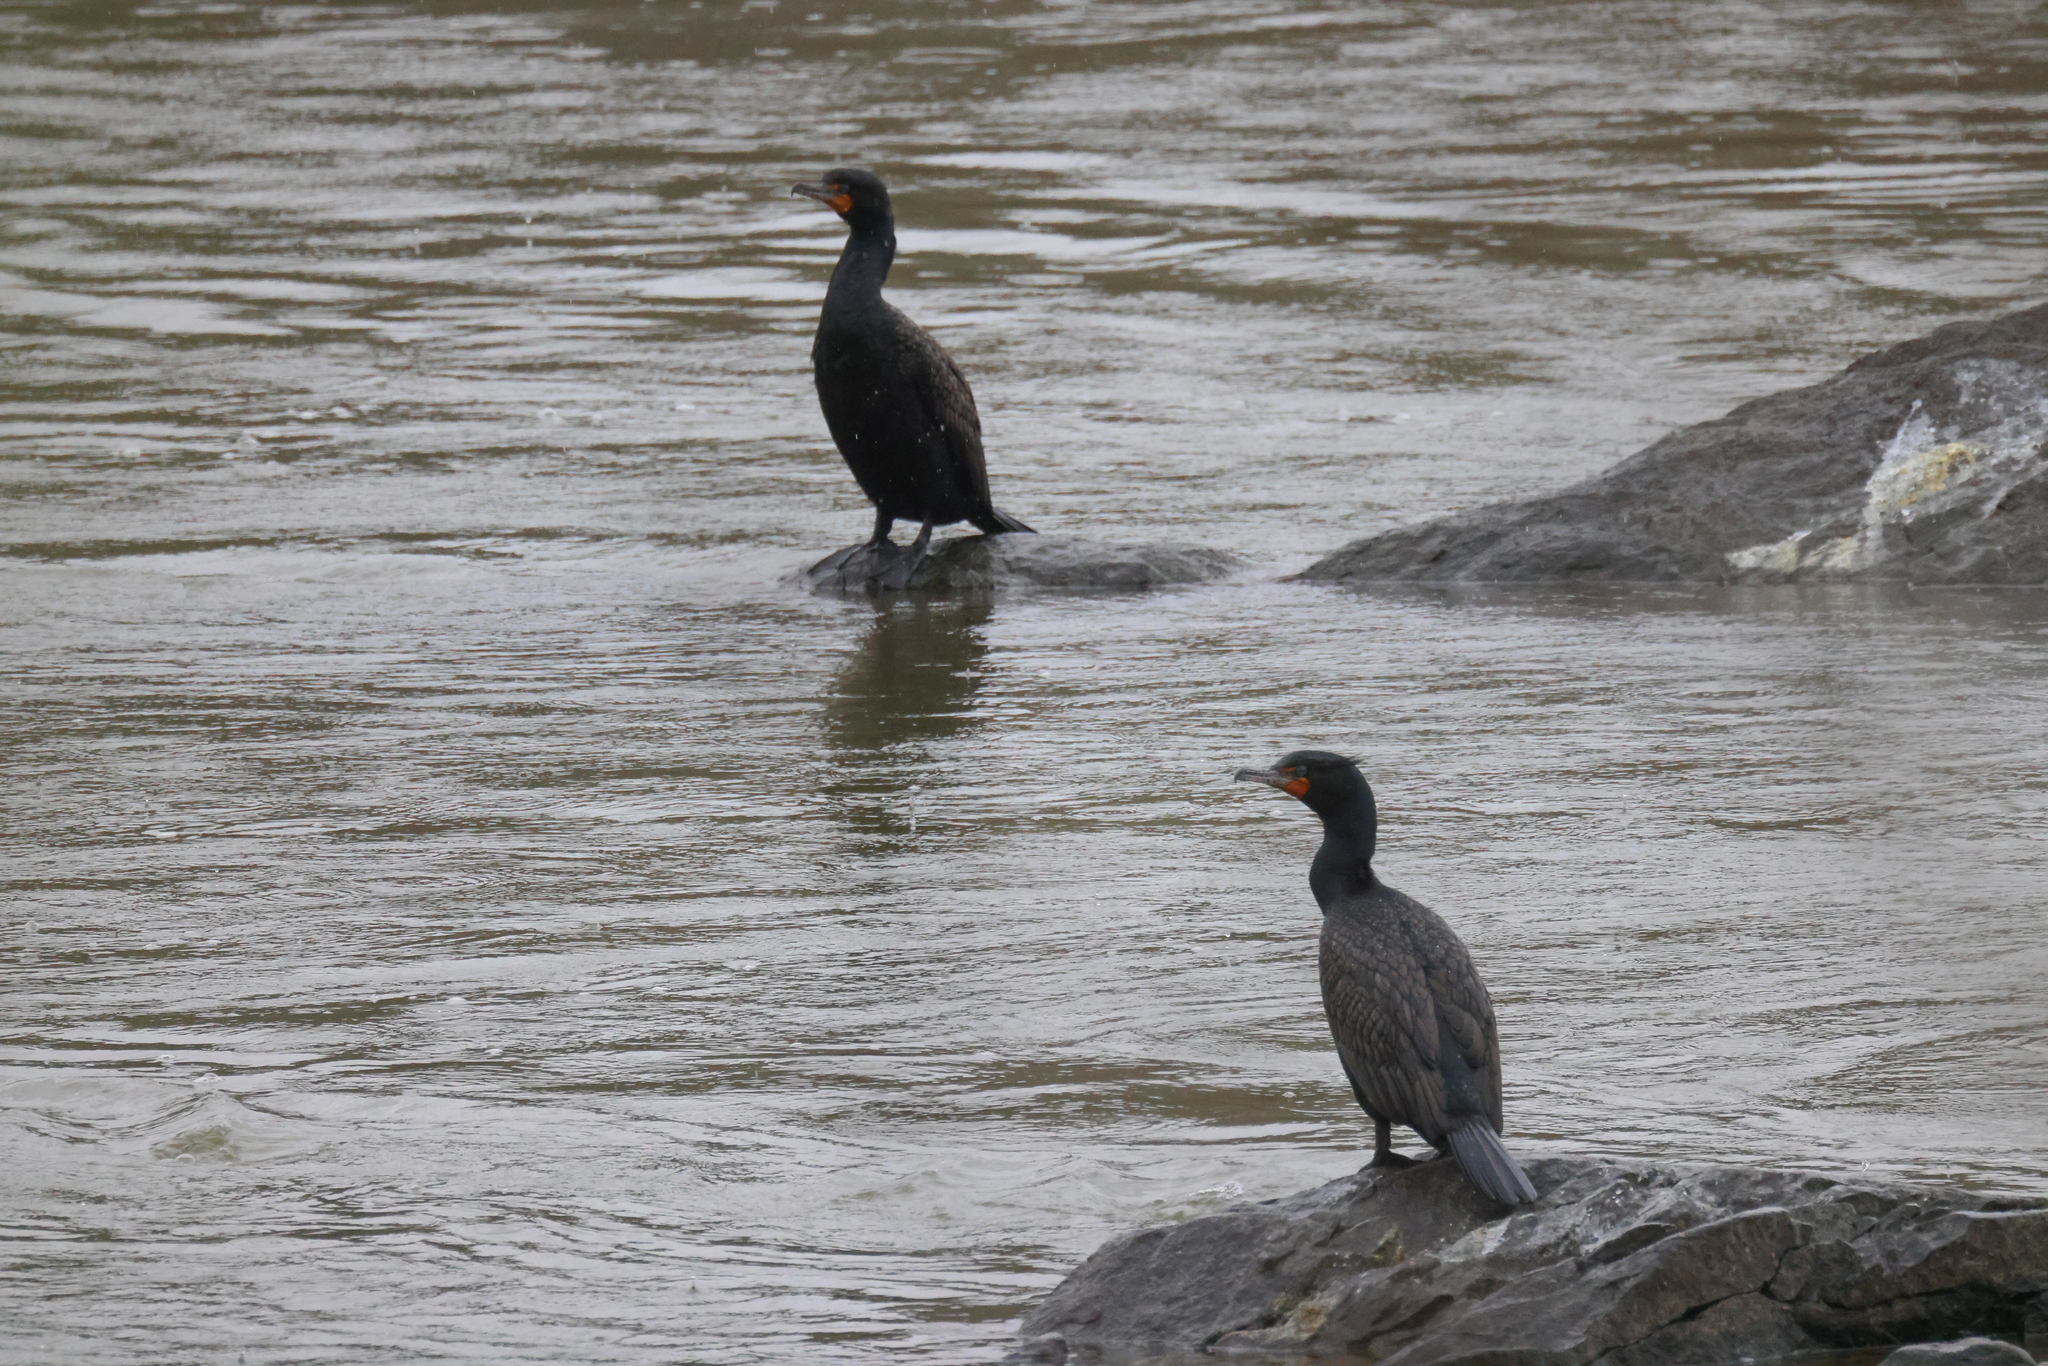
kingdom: Animalia
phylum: Chordata
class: Aves
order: Suliformes
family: Phalacrocoracidae
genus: Phalacrocorax
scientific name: Phalacrocorax auritus
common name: Double-crested cormorant
